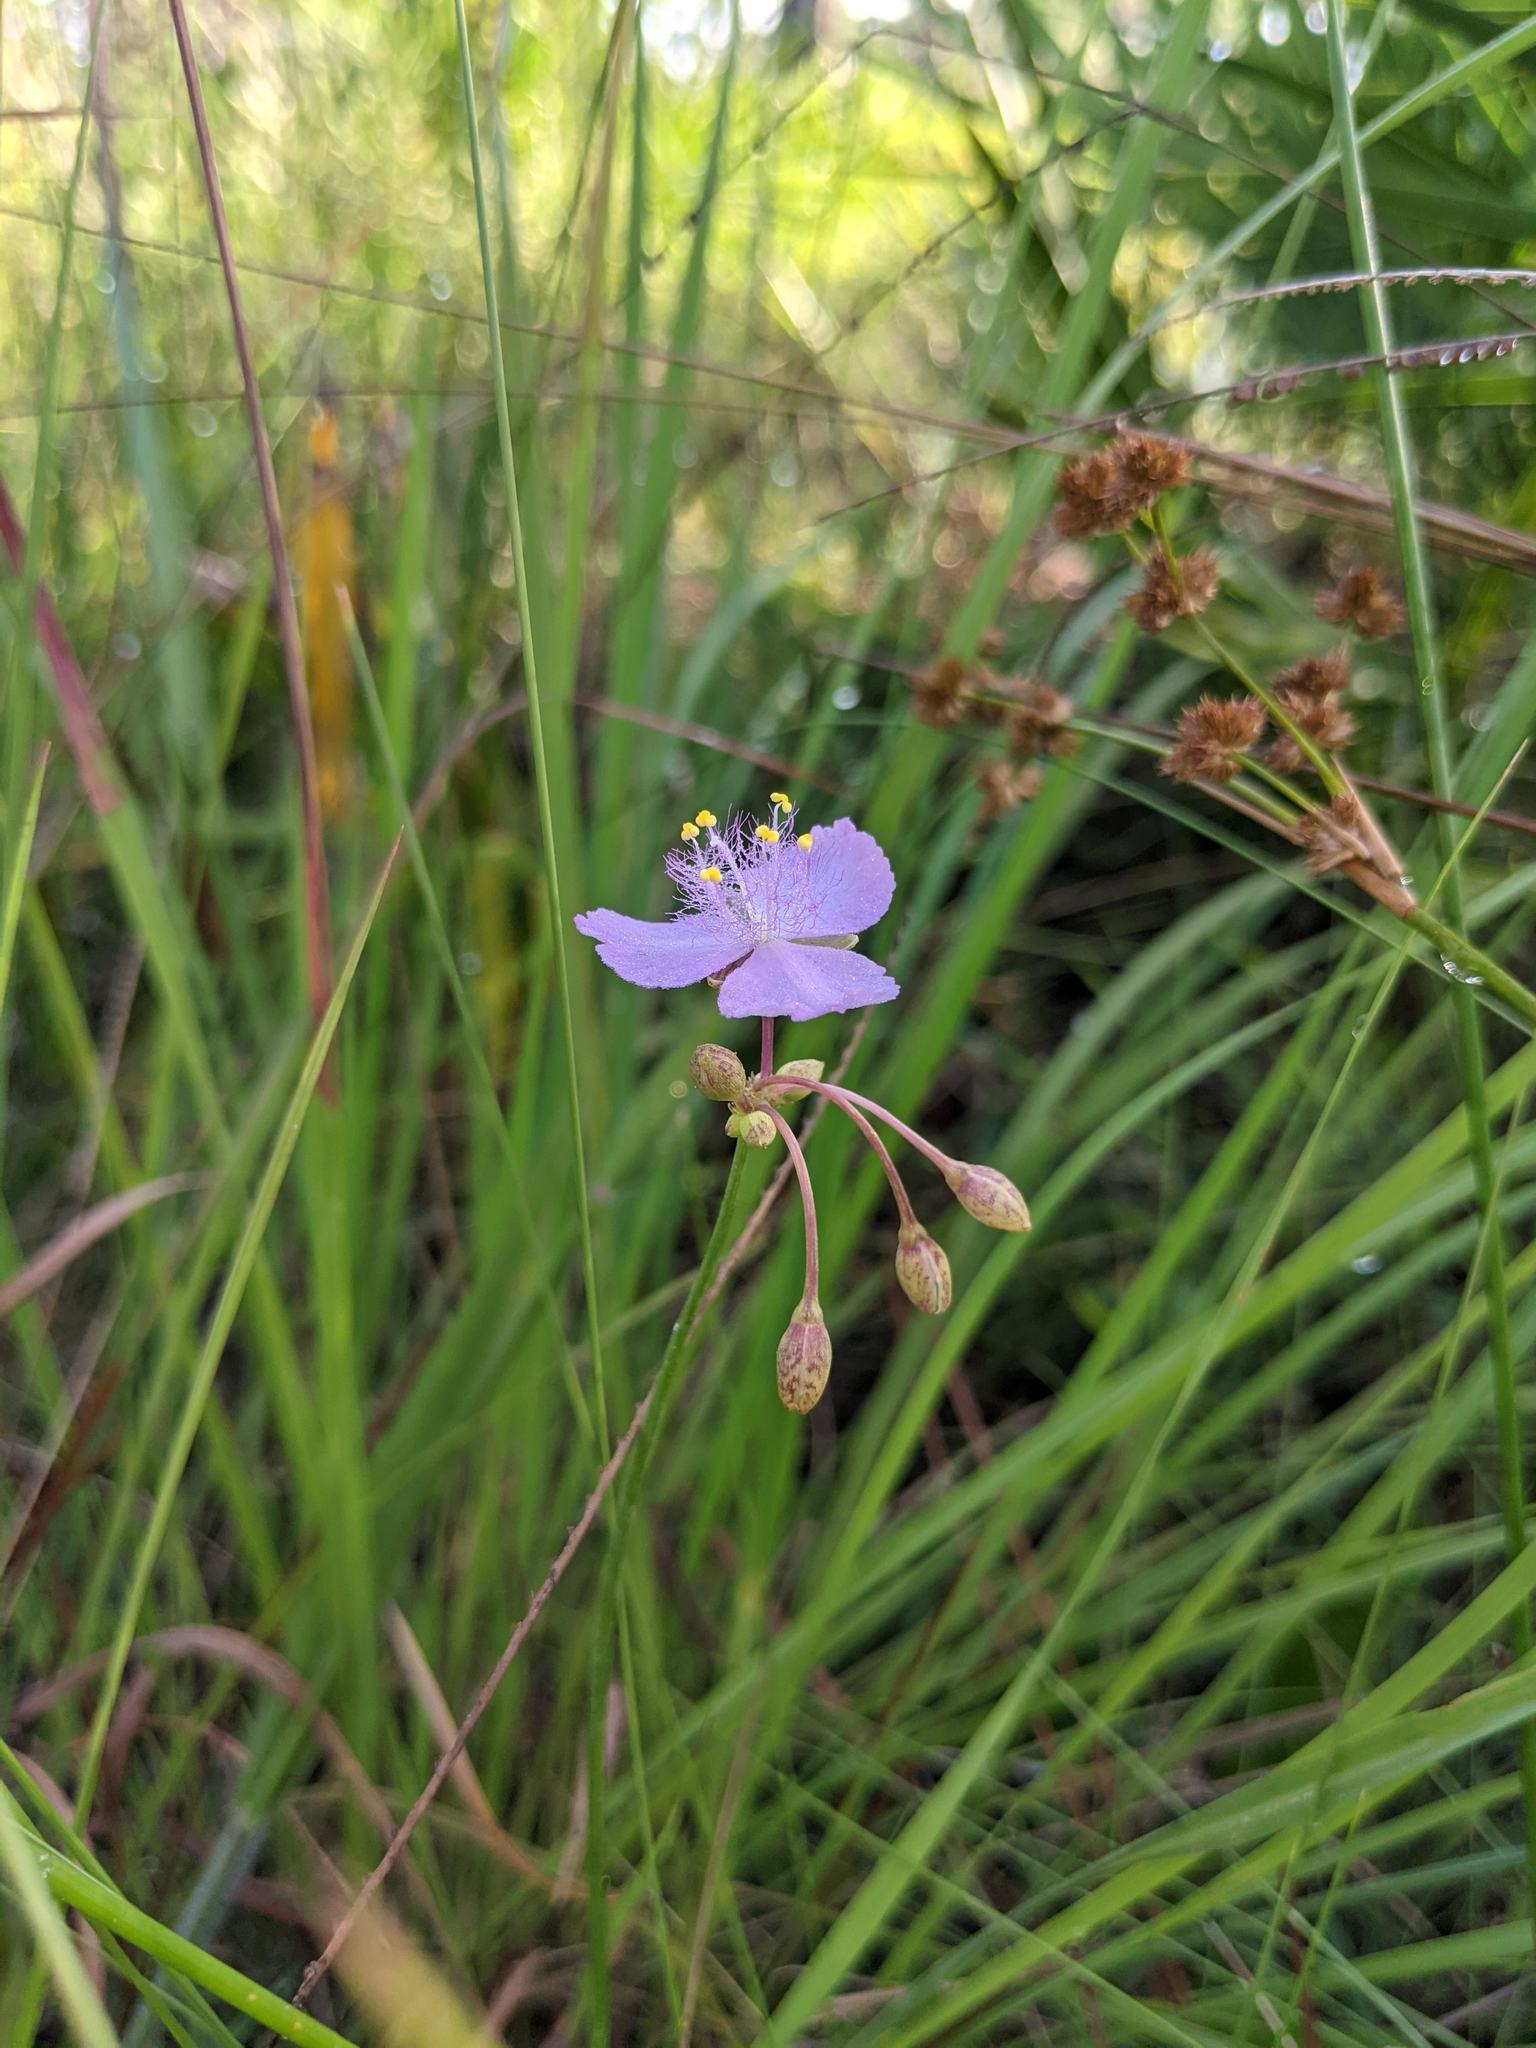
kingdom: Plantae
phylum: Tracheophyta
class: Liliopsida
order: Commelinales
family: Commelinaceae
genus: Callisia
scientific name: Callisia ornata
